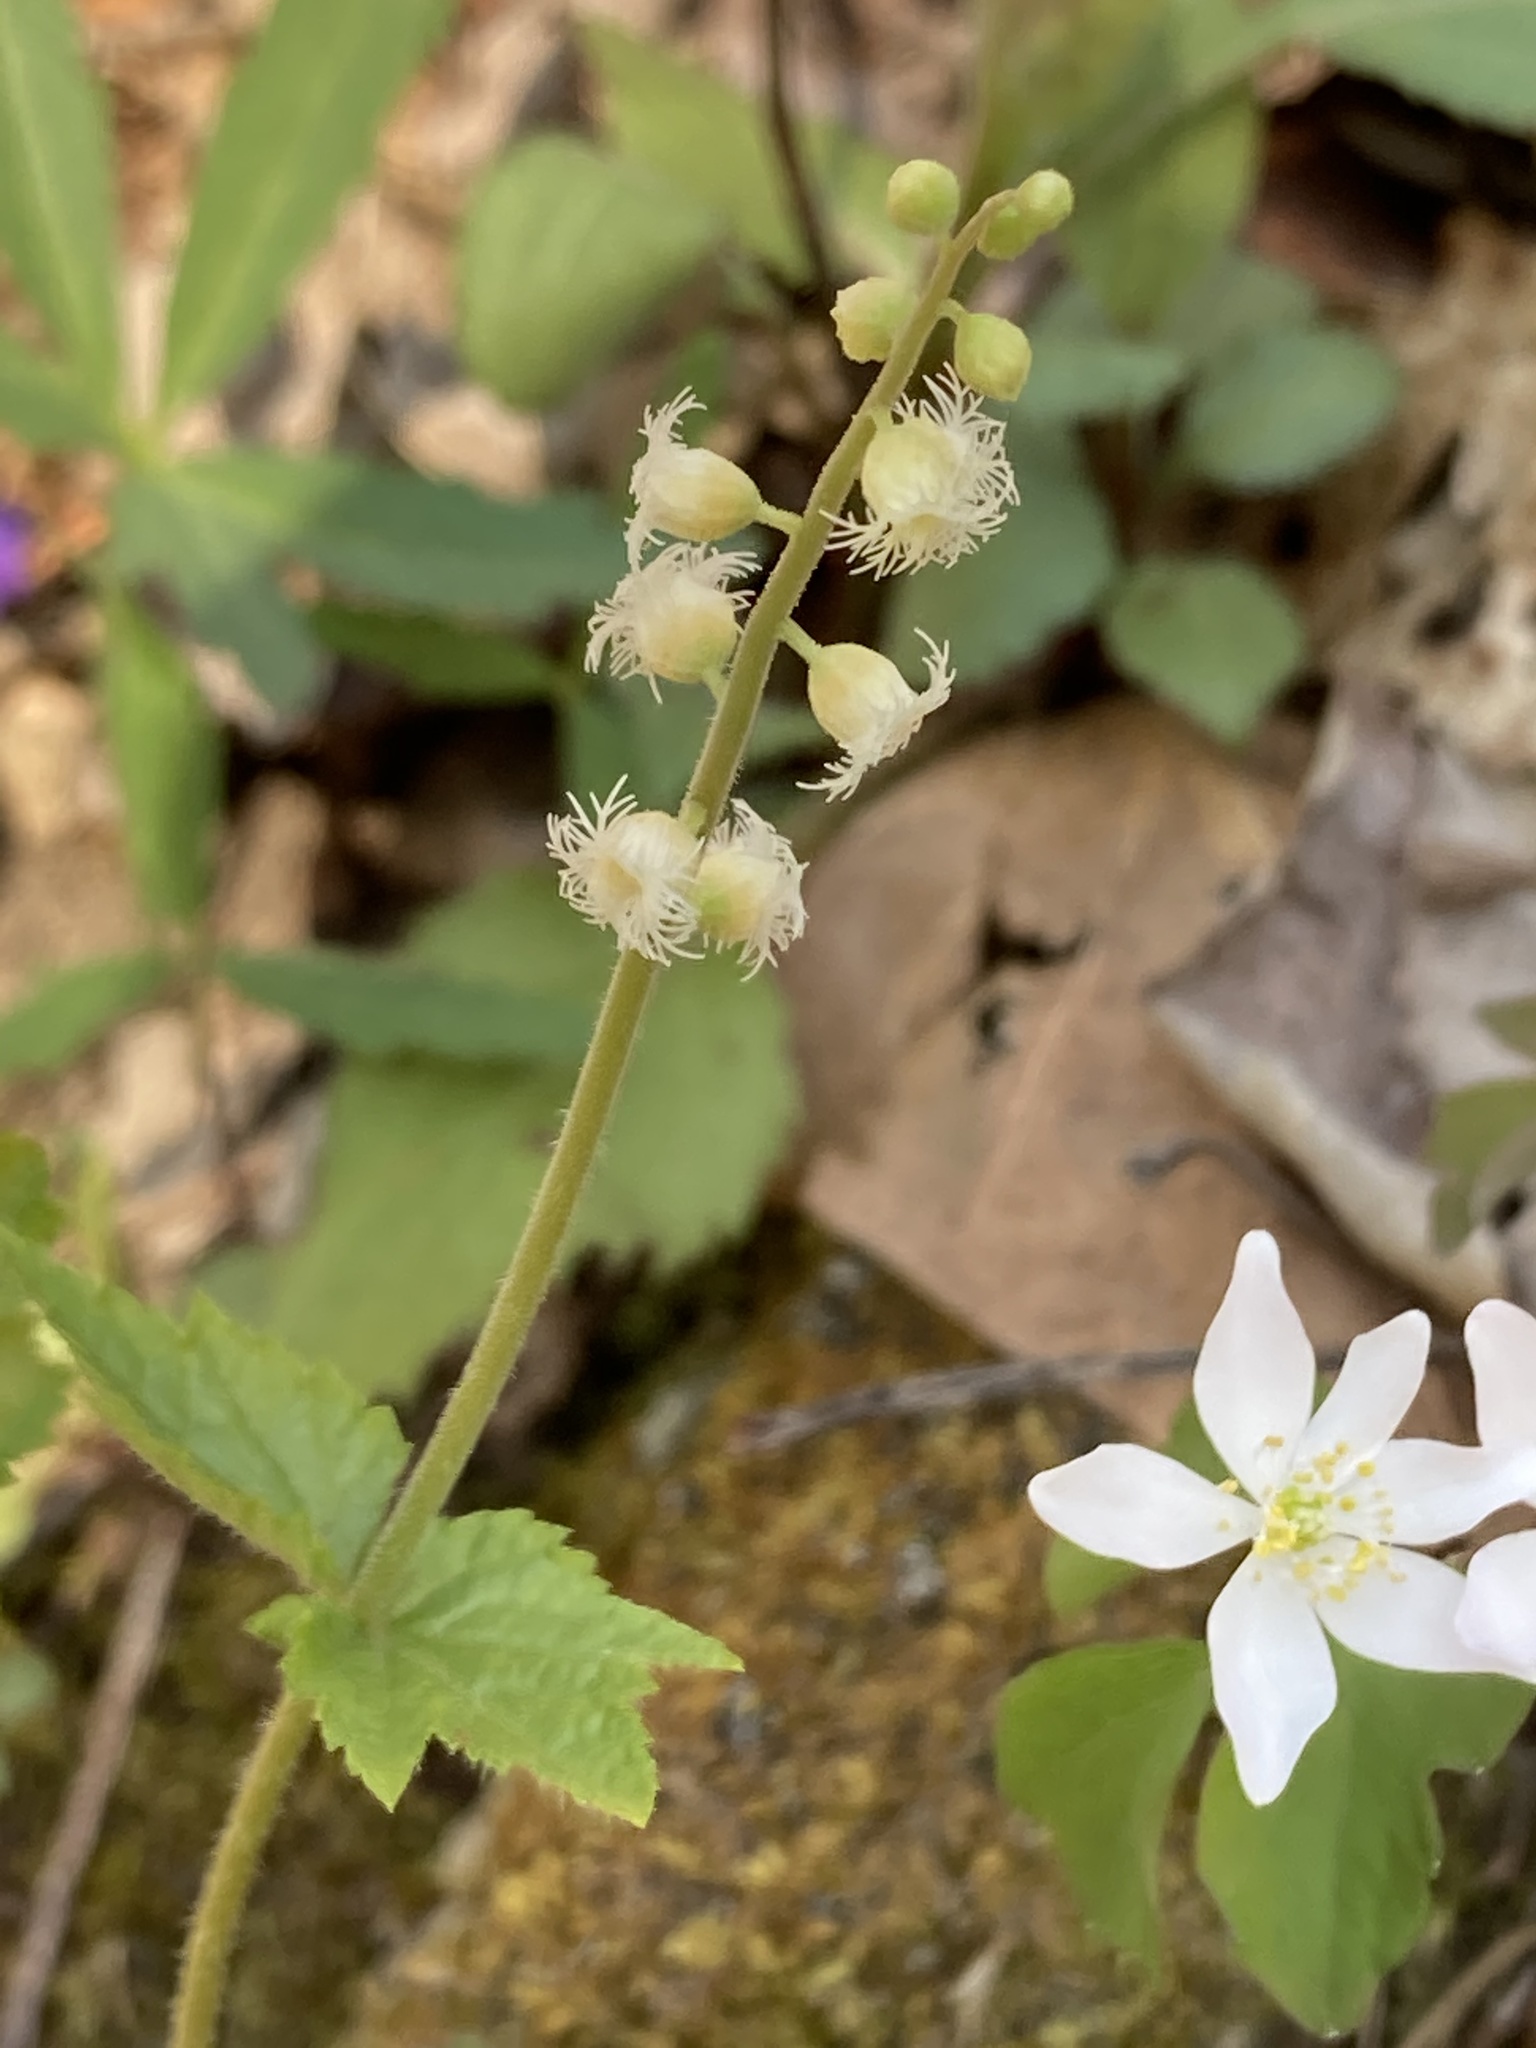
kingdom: Plantae
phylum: Tracheophyta
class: Magnoliopsida
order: Saxifragales
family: Saxifragaceae
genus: Mitella
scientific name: Mitella diphylla
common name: Coolwort
